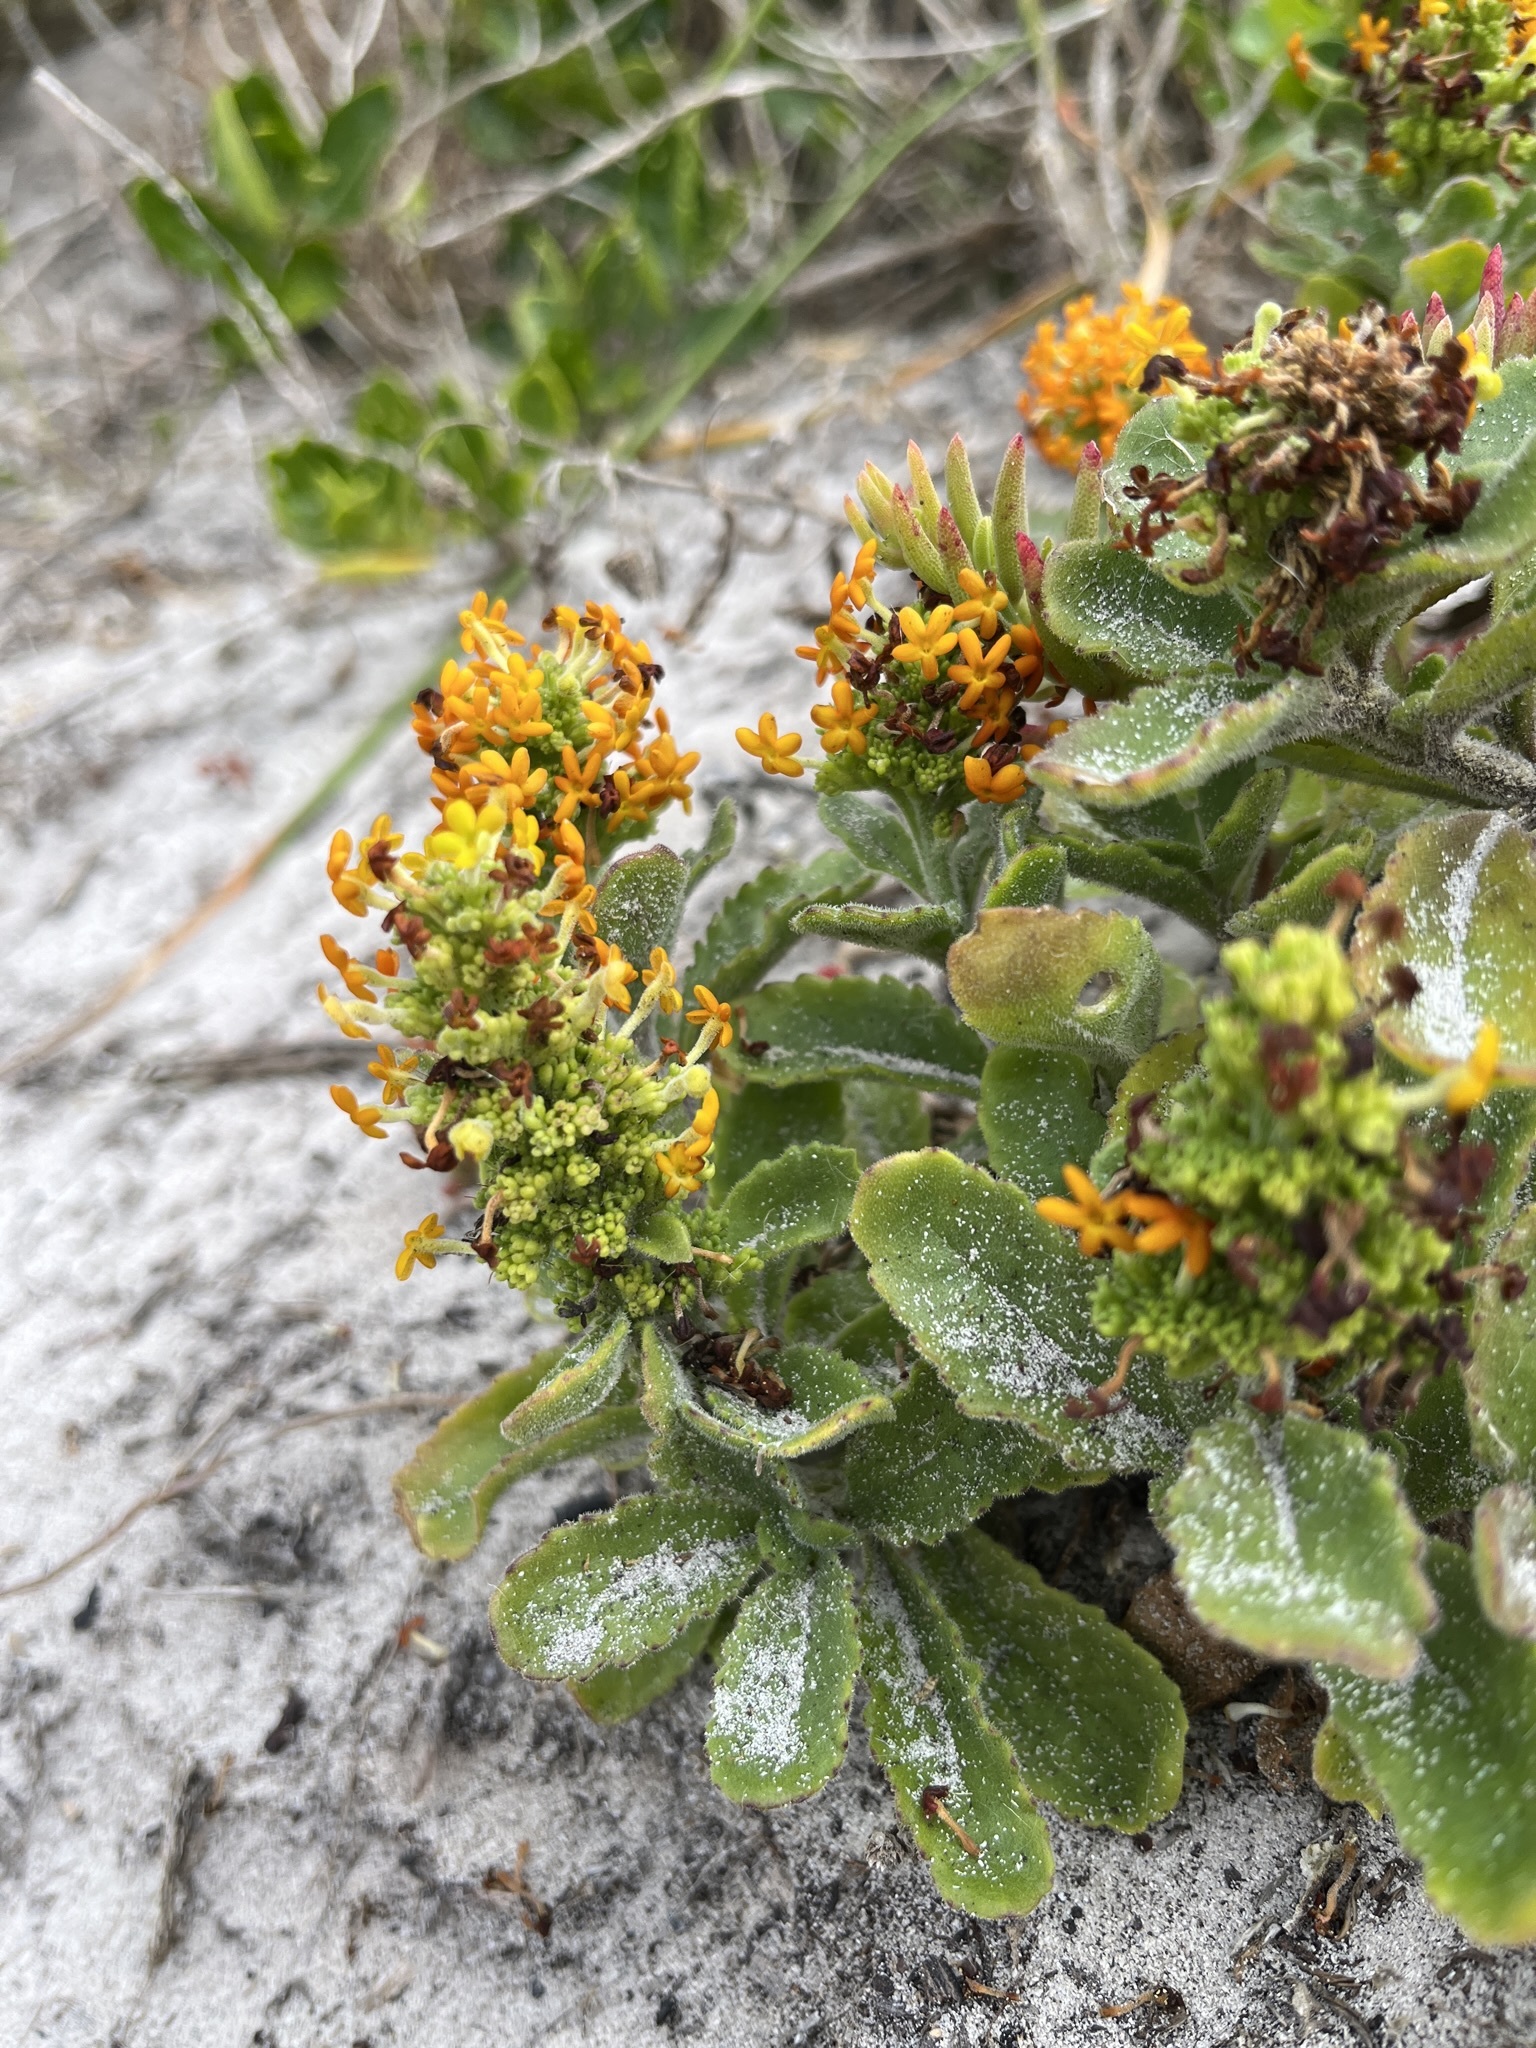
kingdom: Plantae
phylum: Tracheophyta
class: Magnoliopsida
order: Lamiales
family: Scrophulariaceae
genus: Manulea
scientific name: Manulea tomentosa
